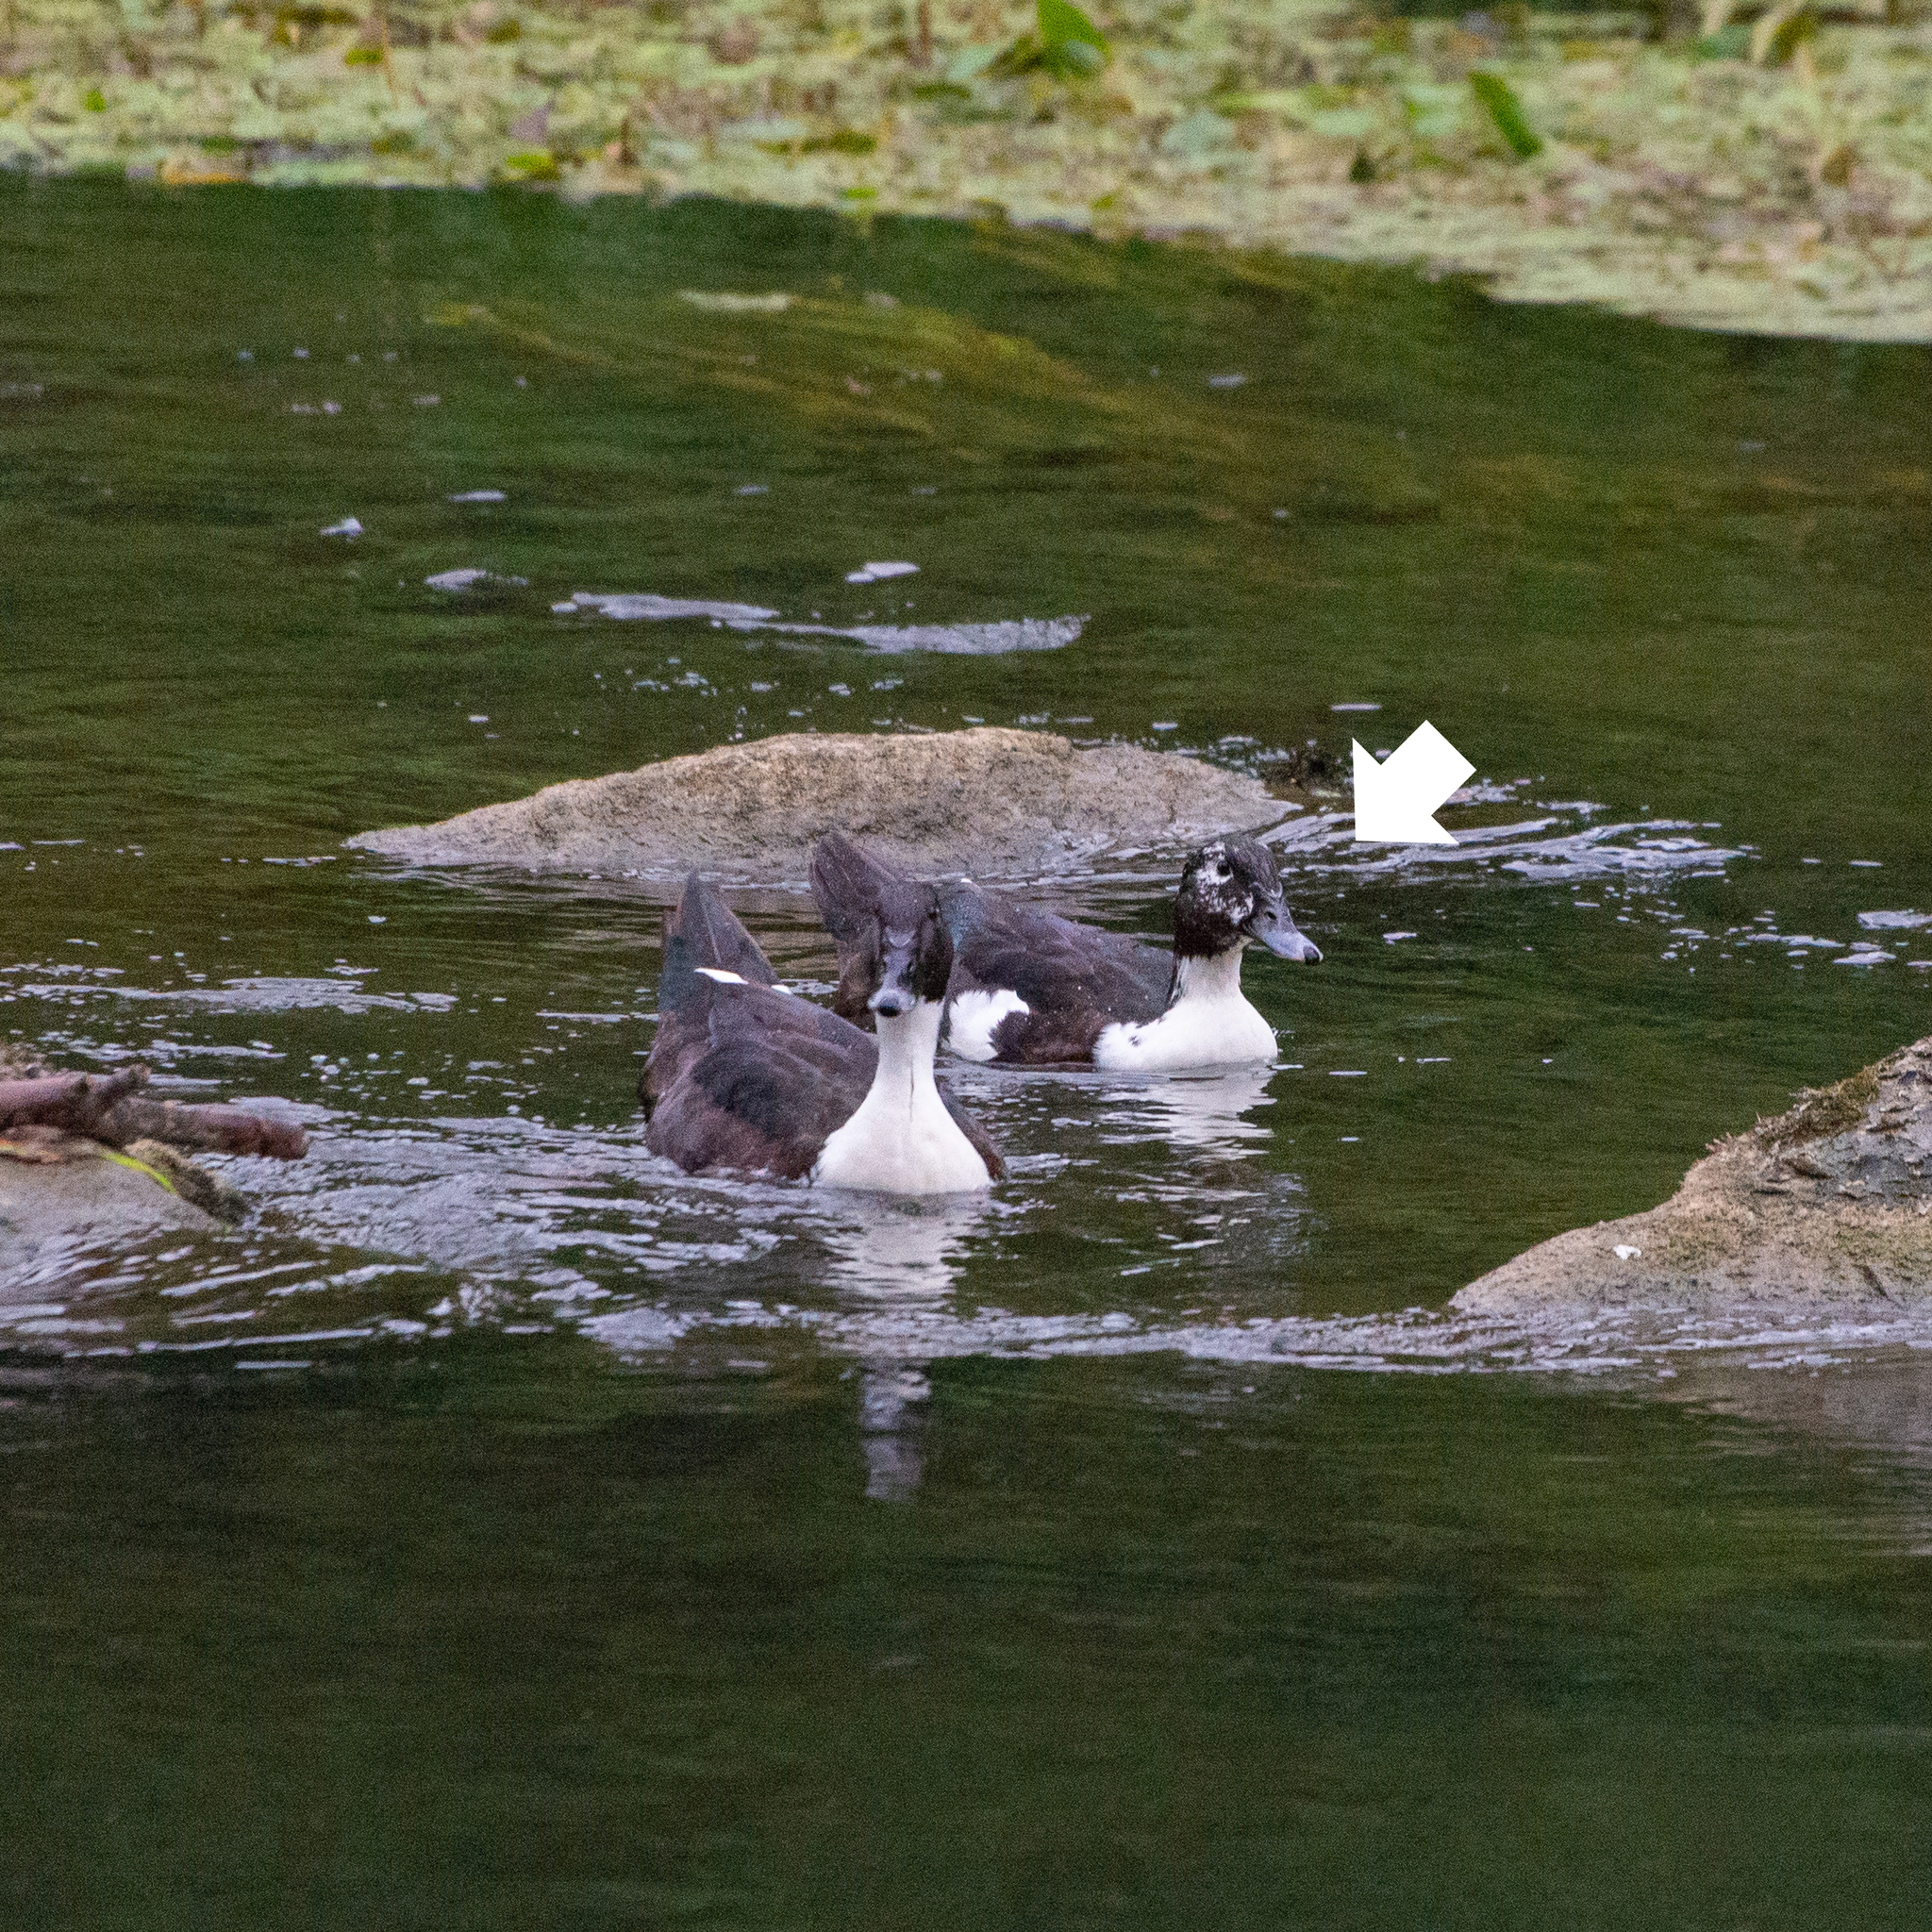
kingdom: Animalia
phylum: Chordata
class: Aves
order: Anseriformes
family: Anatidae
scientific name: Anatidae
